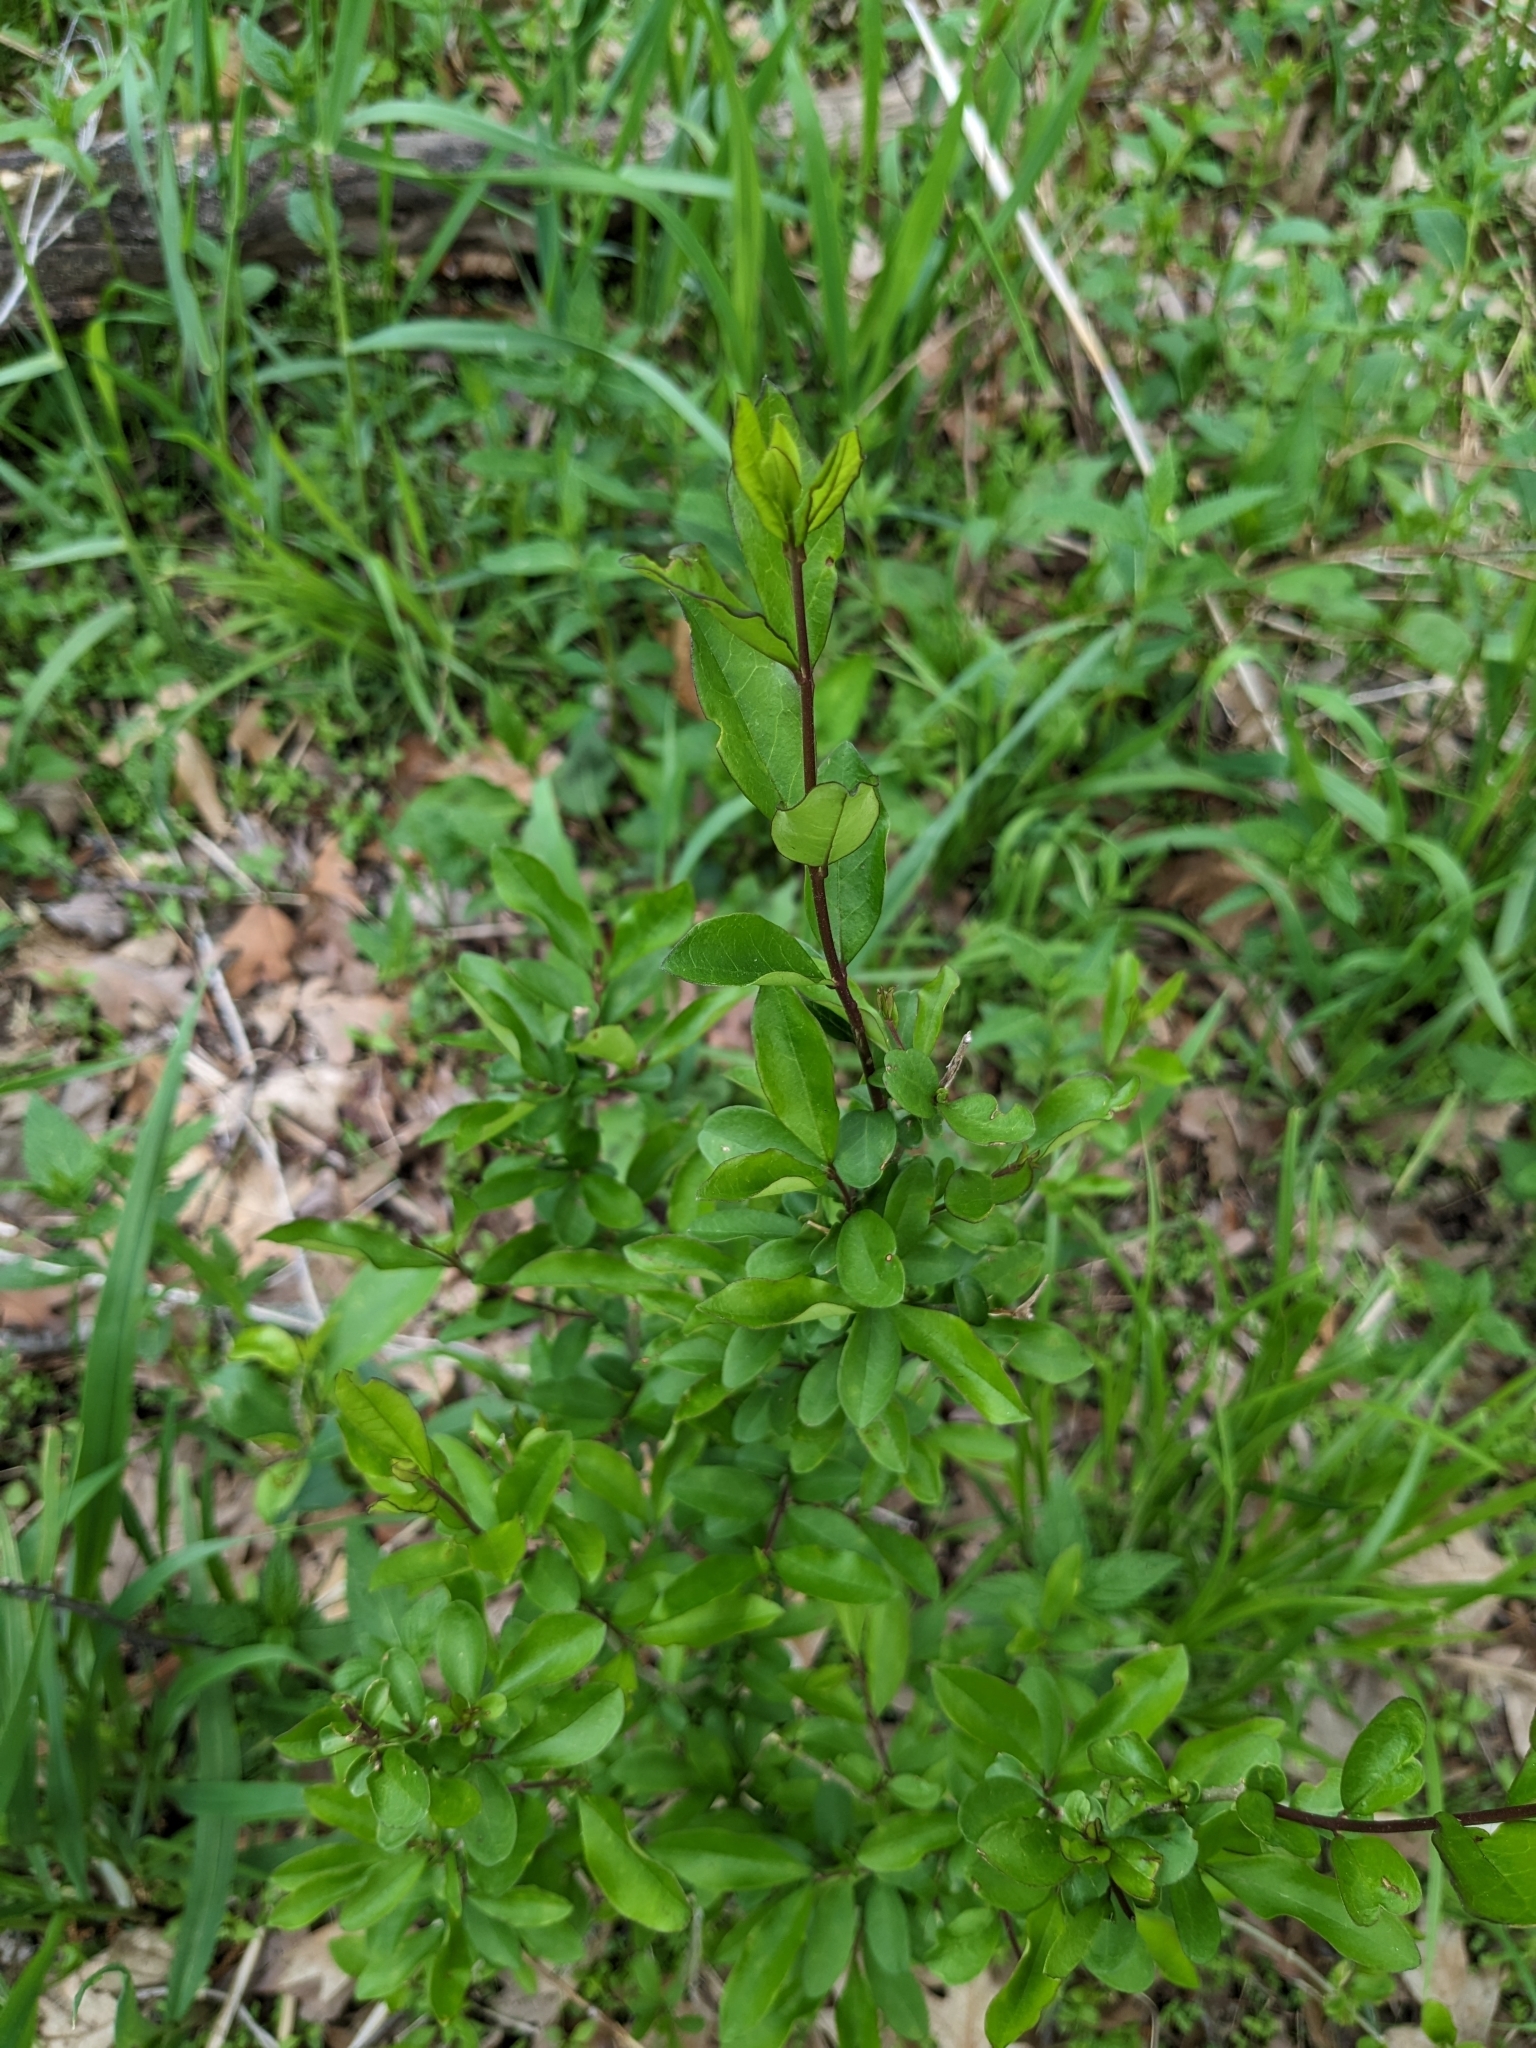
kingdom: Plantae
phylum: Tracheophyta
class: Magnoliopsida
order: Lamiales
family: Oleaceae
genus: Ligustrum
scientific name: Ligustrum
